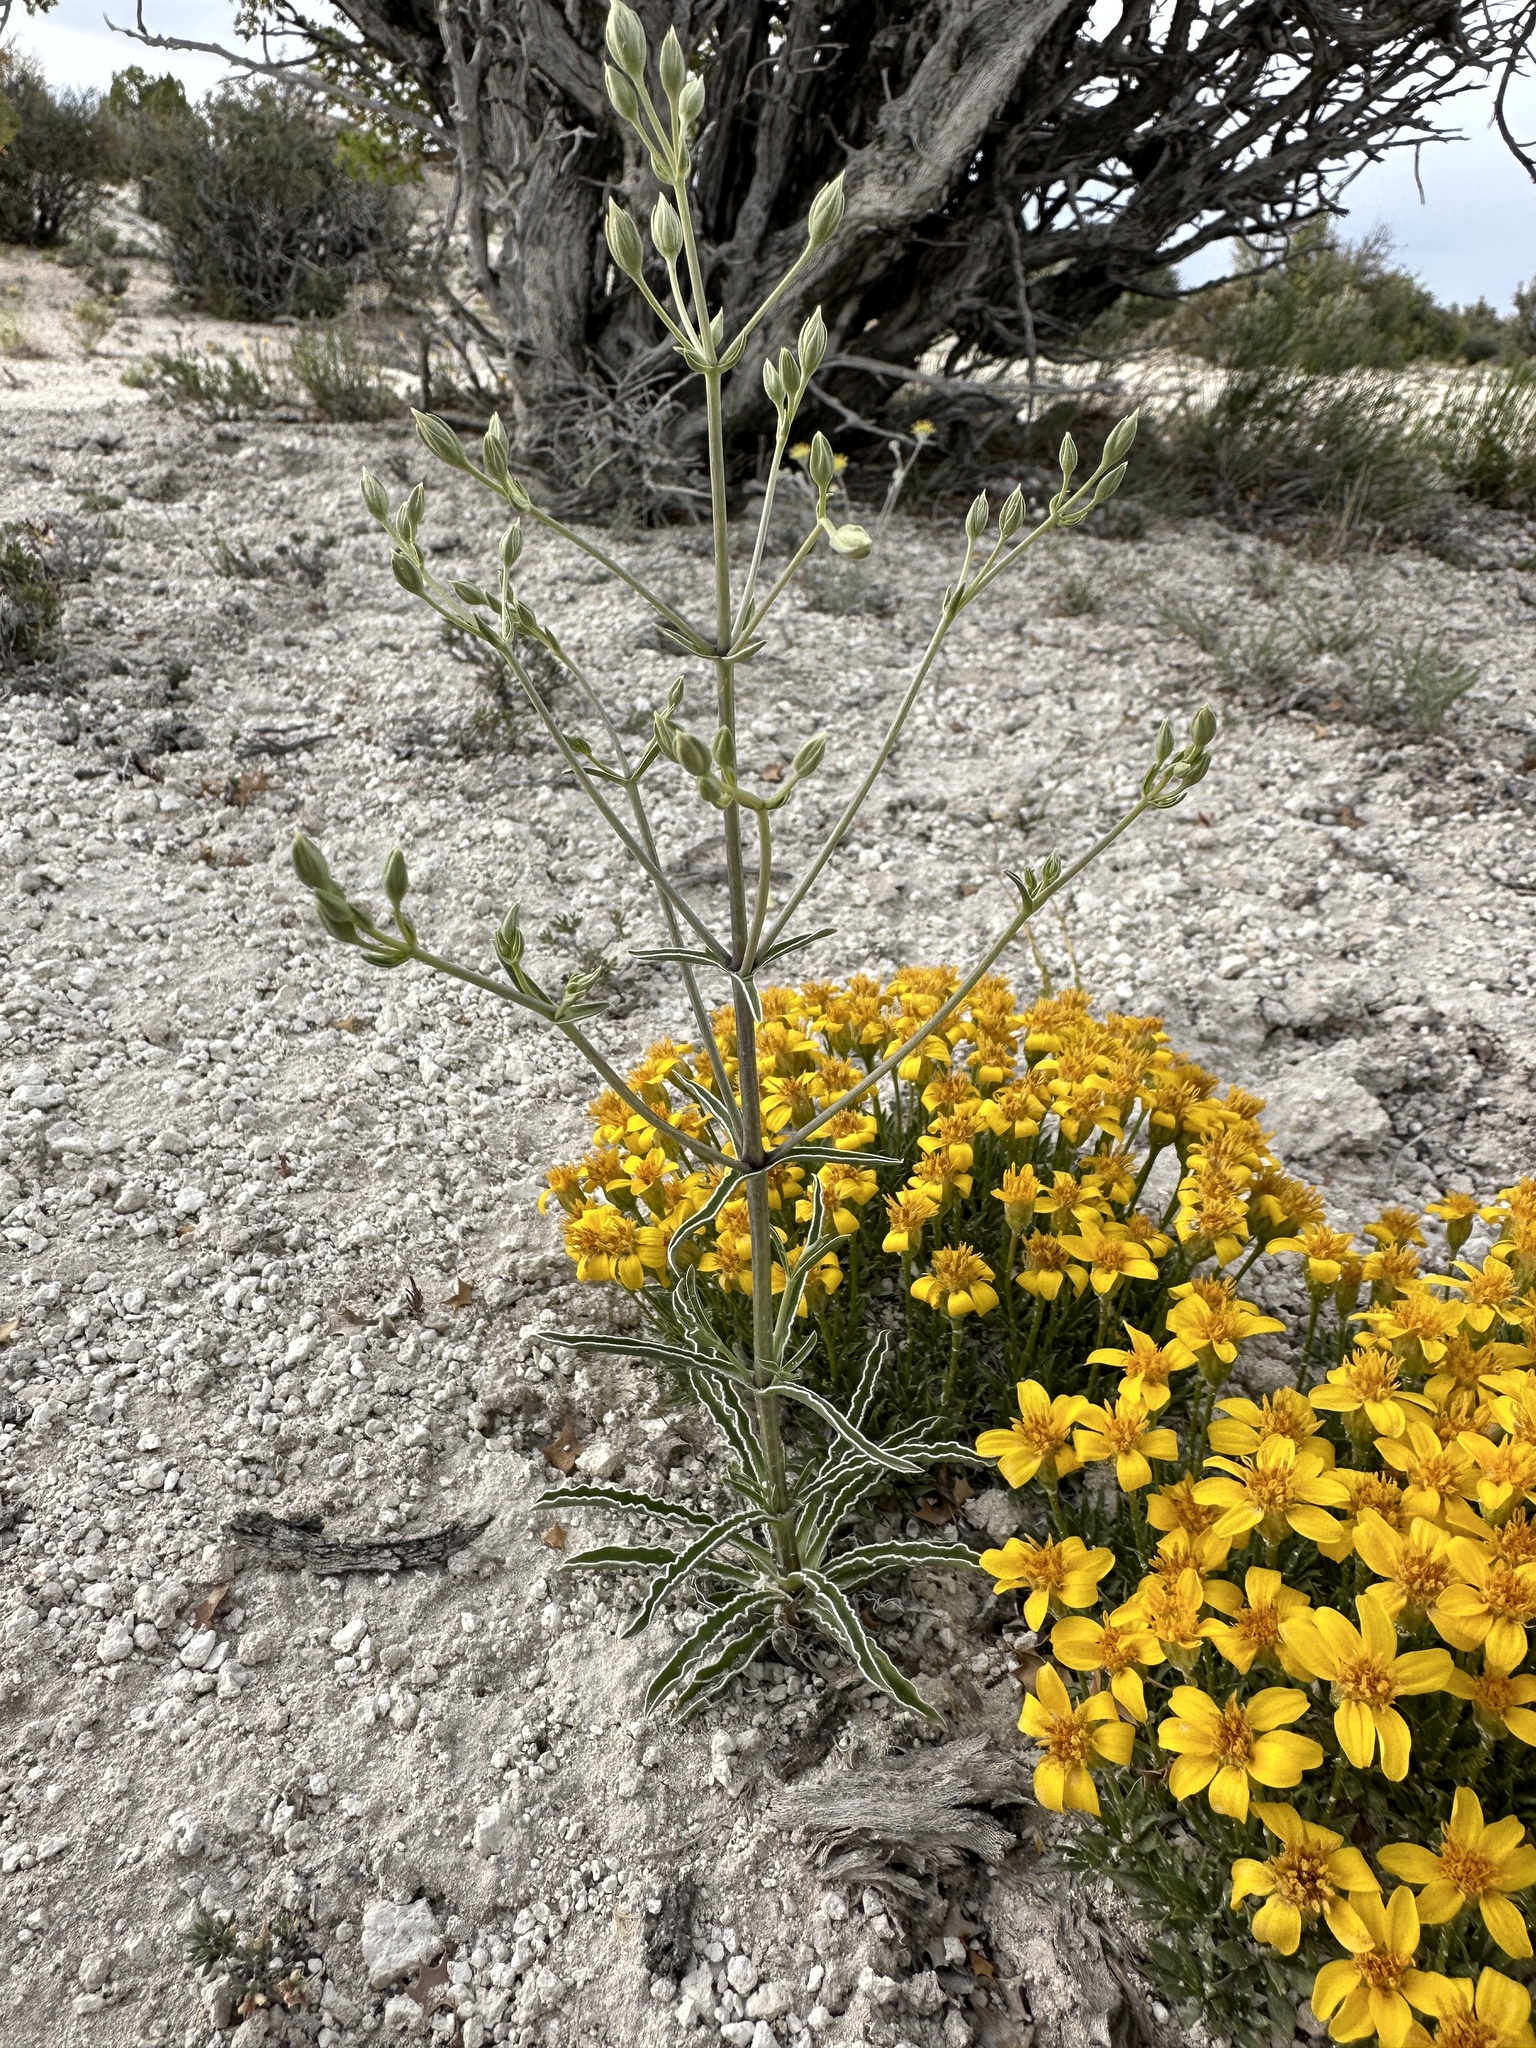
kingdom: Plantae
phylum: Tracheophyta
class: Magnoliopsida
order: Gentianales
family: Gentianaceae
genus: Frasera
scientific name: Frasera albomarginata
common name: Desert frasera
